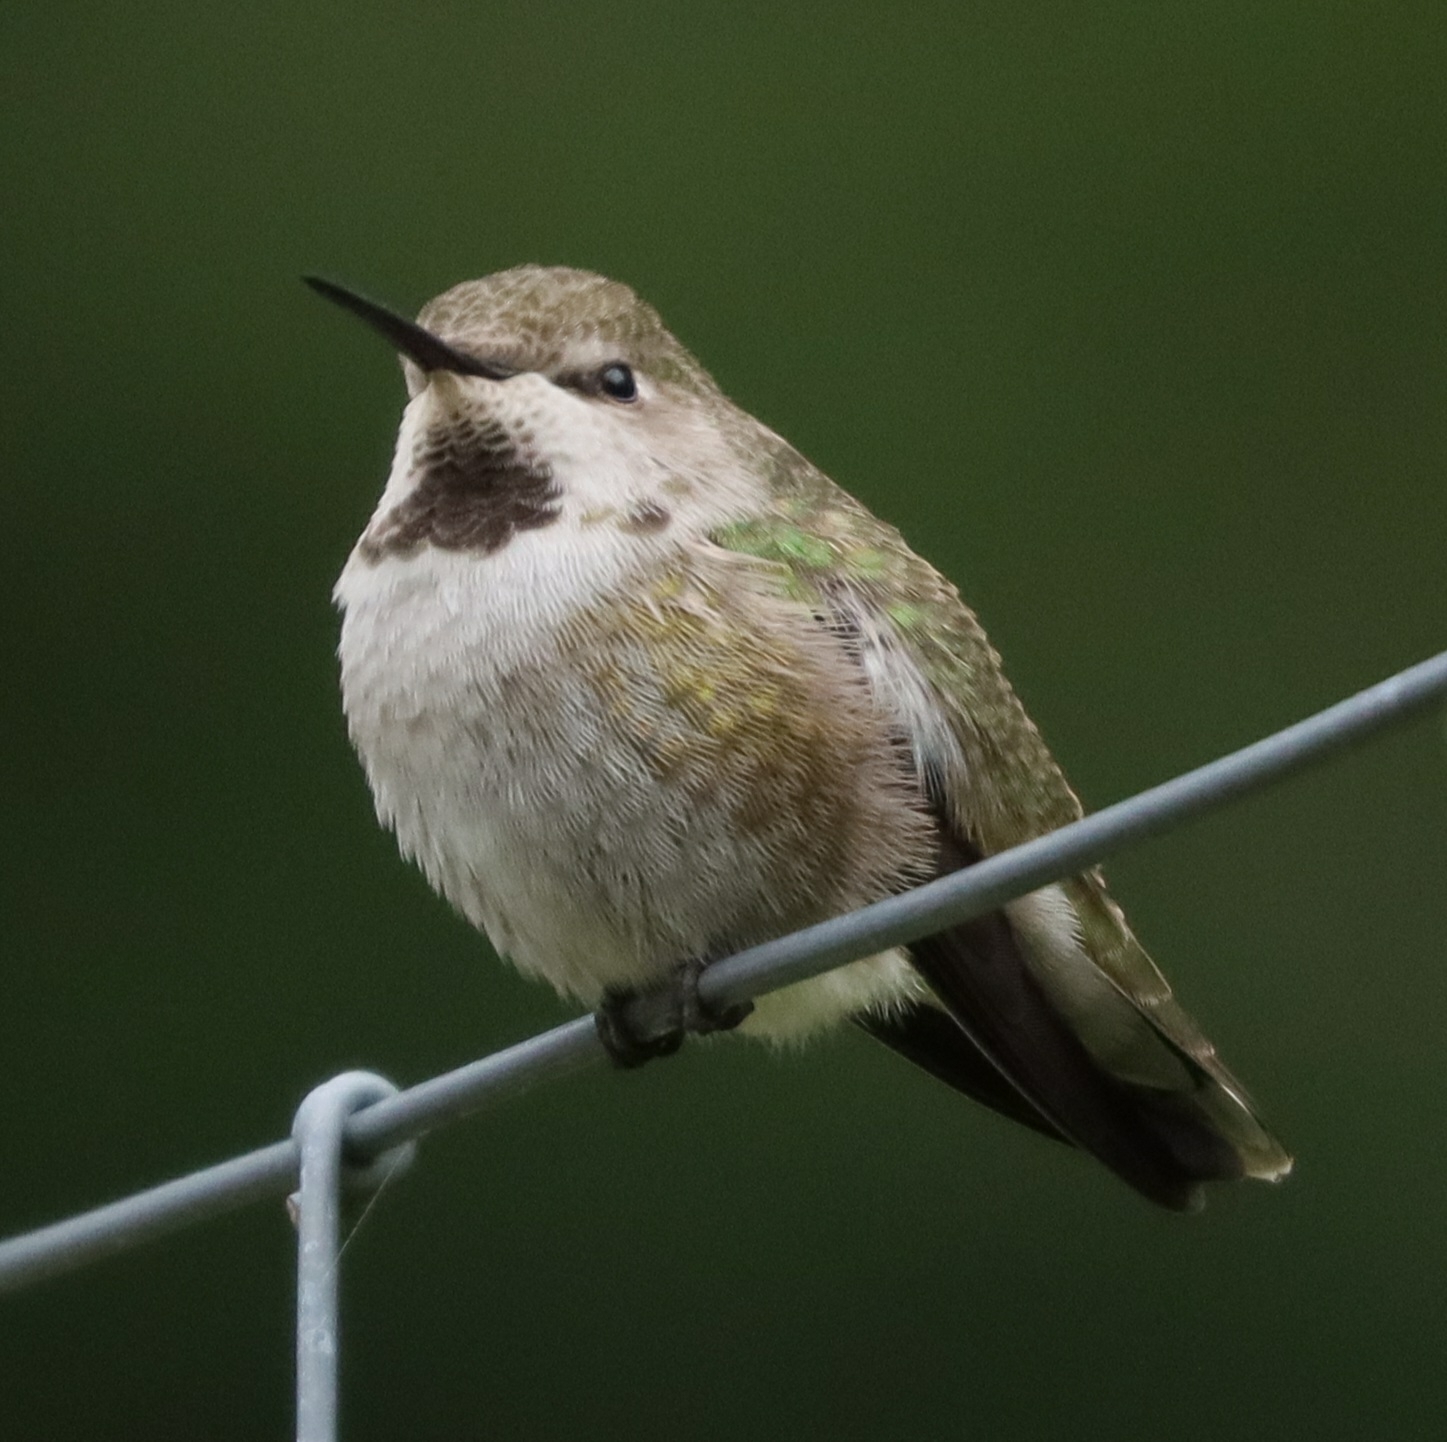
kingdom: Animalia
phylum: Chordata
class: Aves
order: Apodiformes
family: Trochilidae
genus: Calypte
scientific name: Calypte anna
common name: Anna's hummingbird
